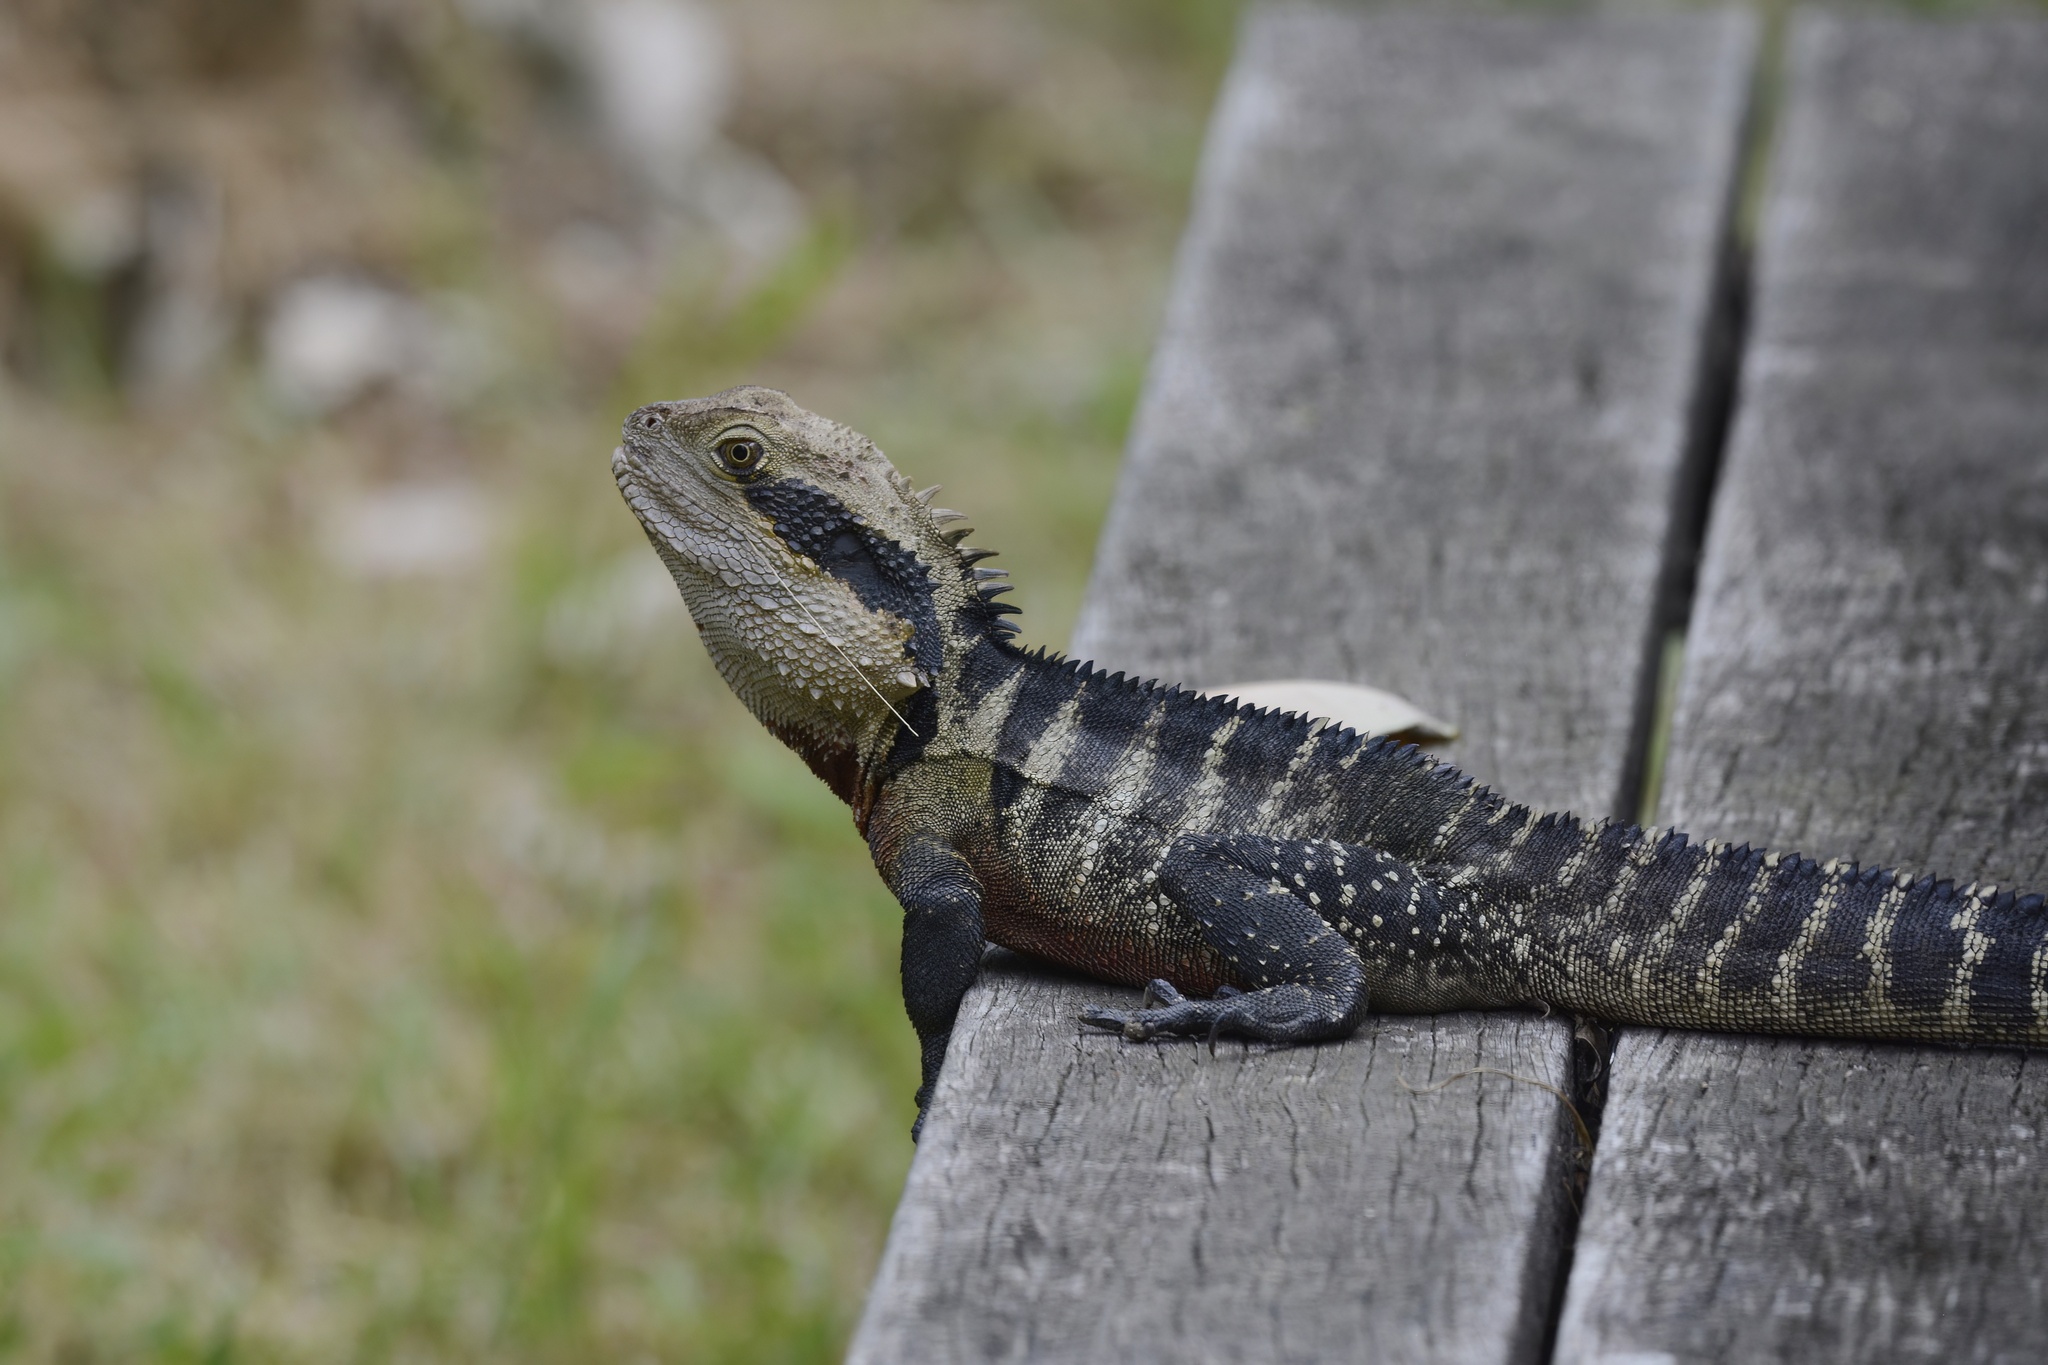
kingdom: Animalia
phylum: Chordata
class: Squamata
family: Agamidae
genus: Intellagama
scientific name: Intellagama lesueurii
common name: Eastern water dragon
